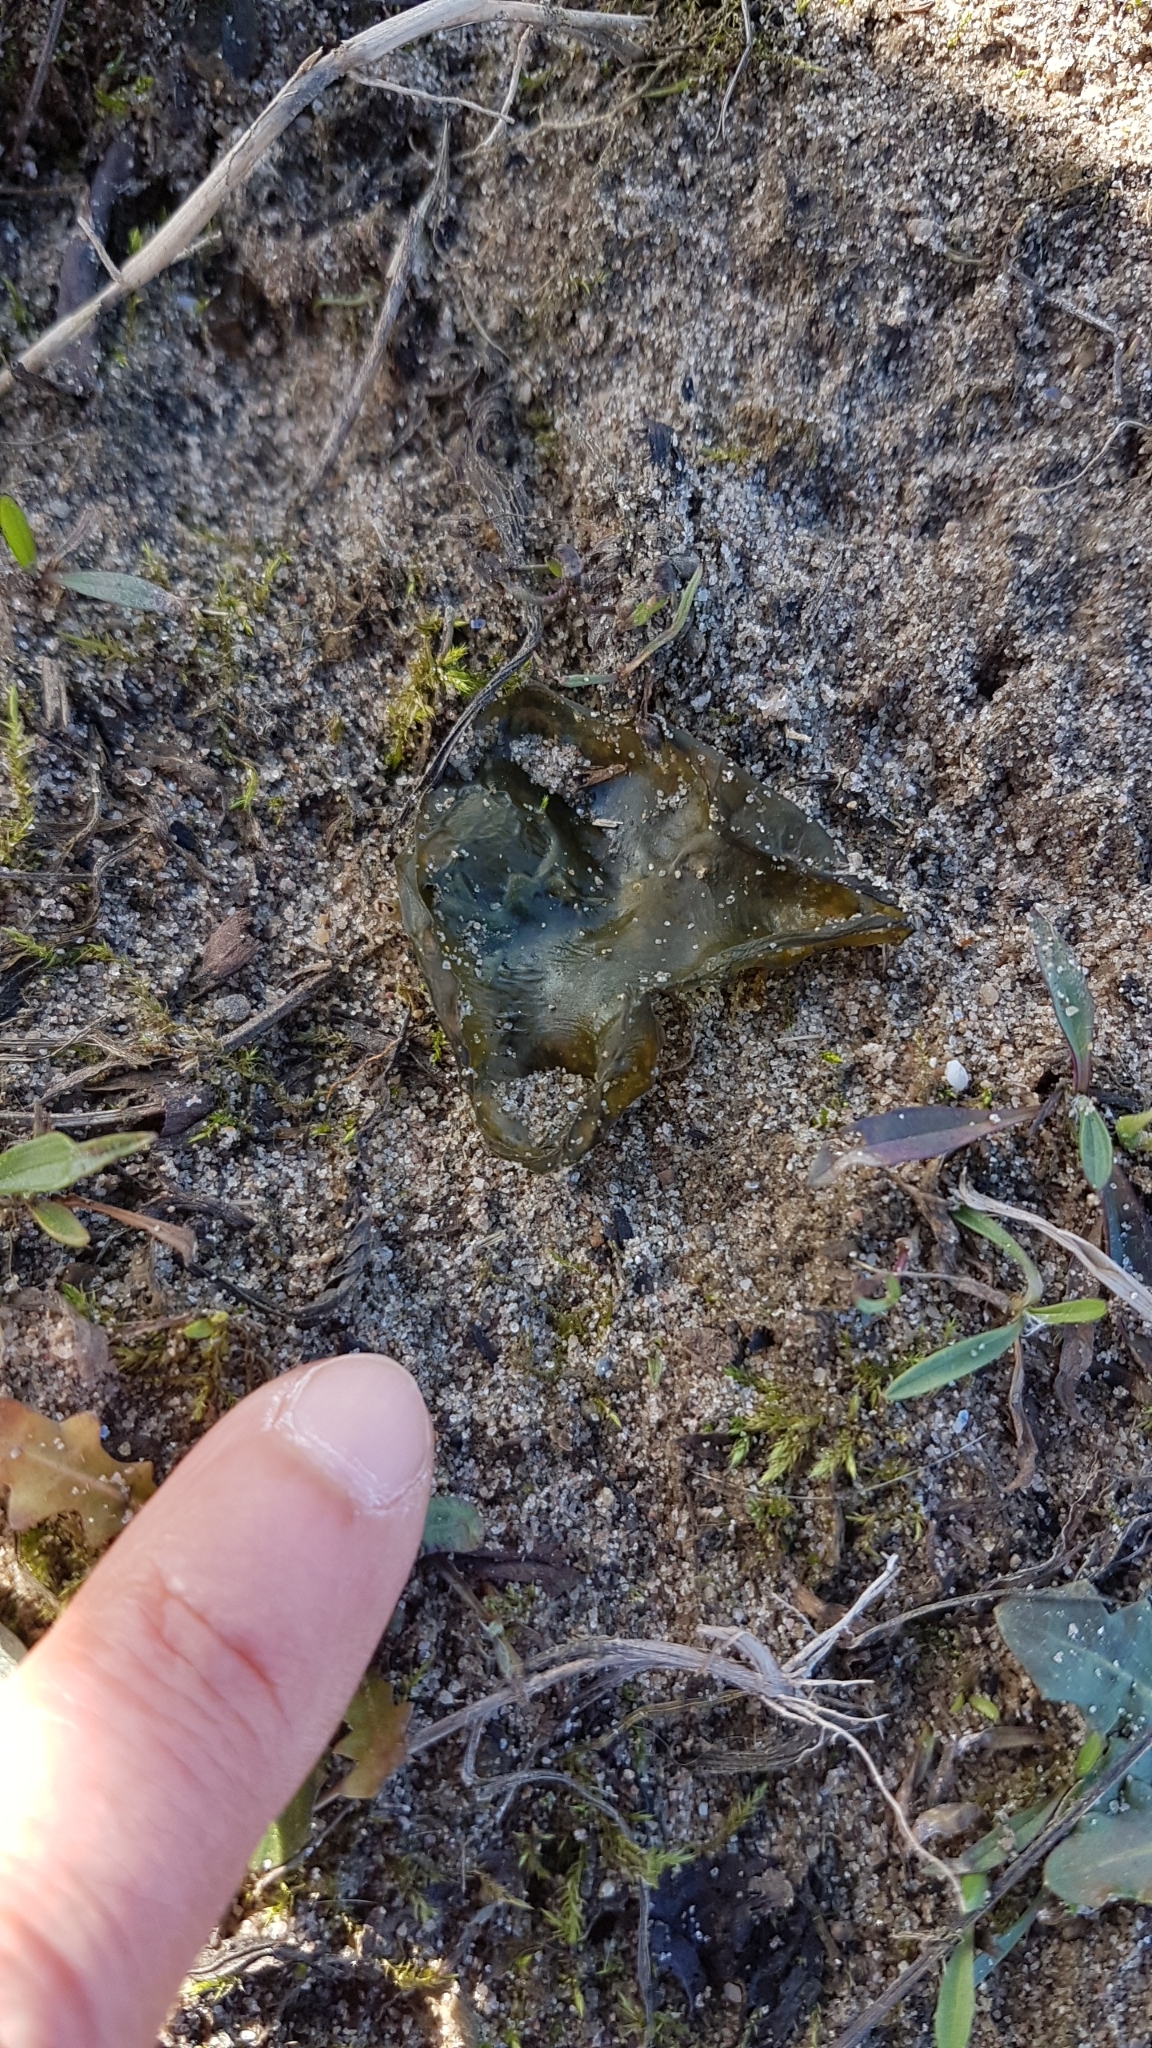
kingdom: Bacteria
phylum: Cyanobacteria
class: Cyanobacteriia
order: Cyanobacteriales
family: Nostocaceae
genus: Nostoc
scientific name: Nostoc commune
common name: Star jelly
